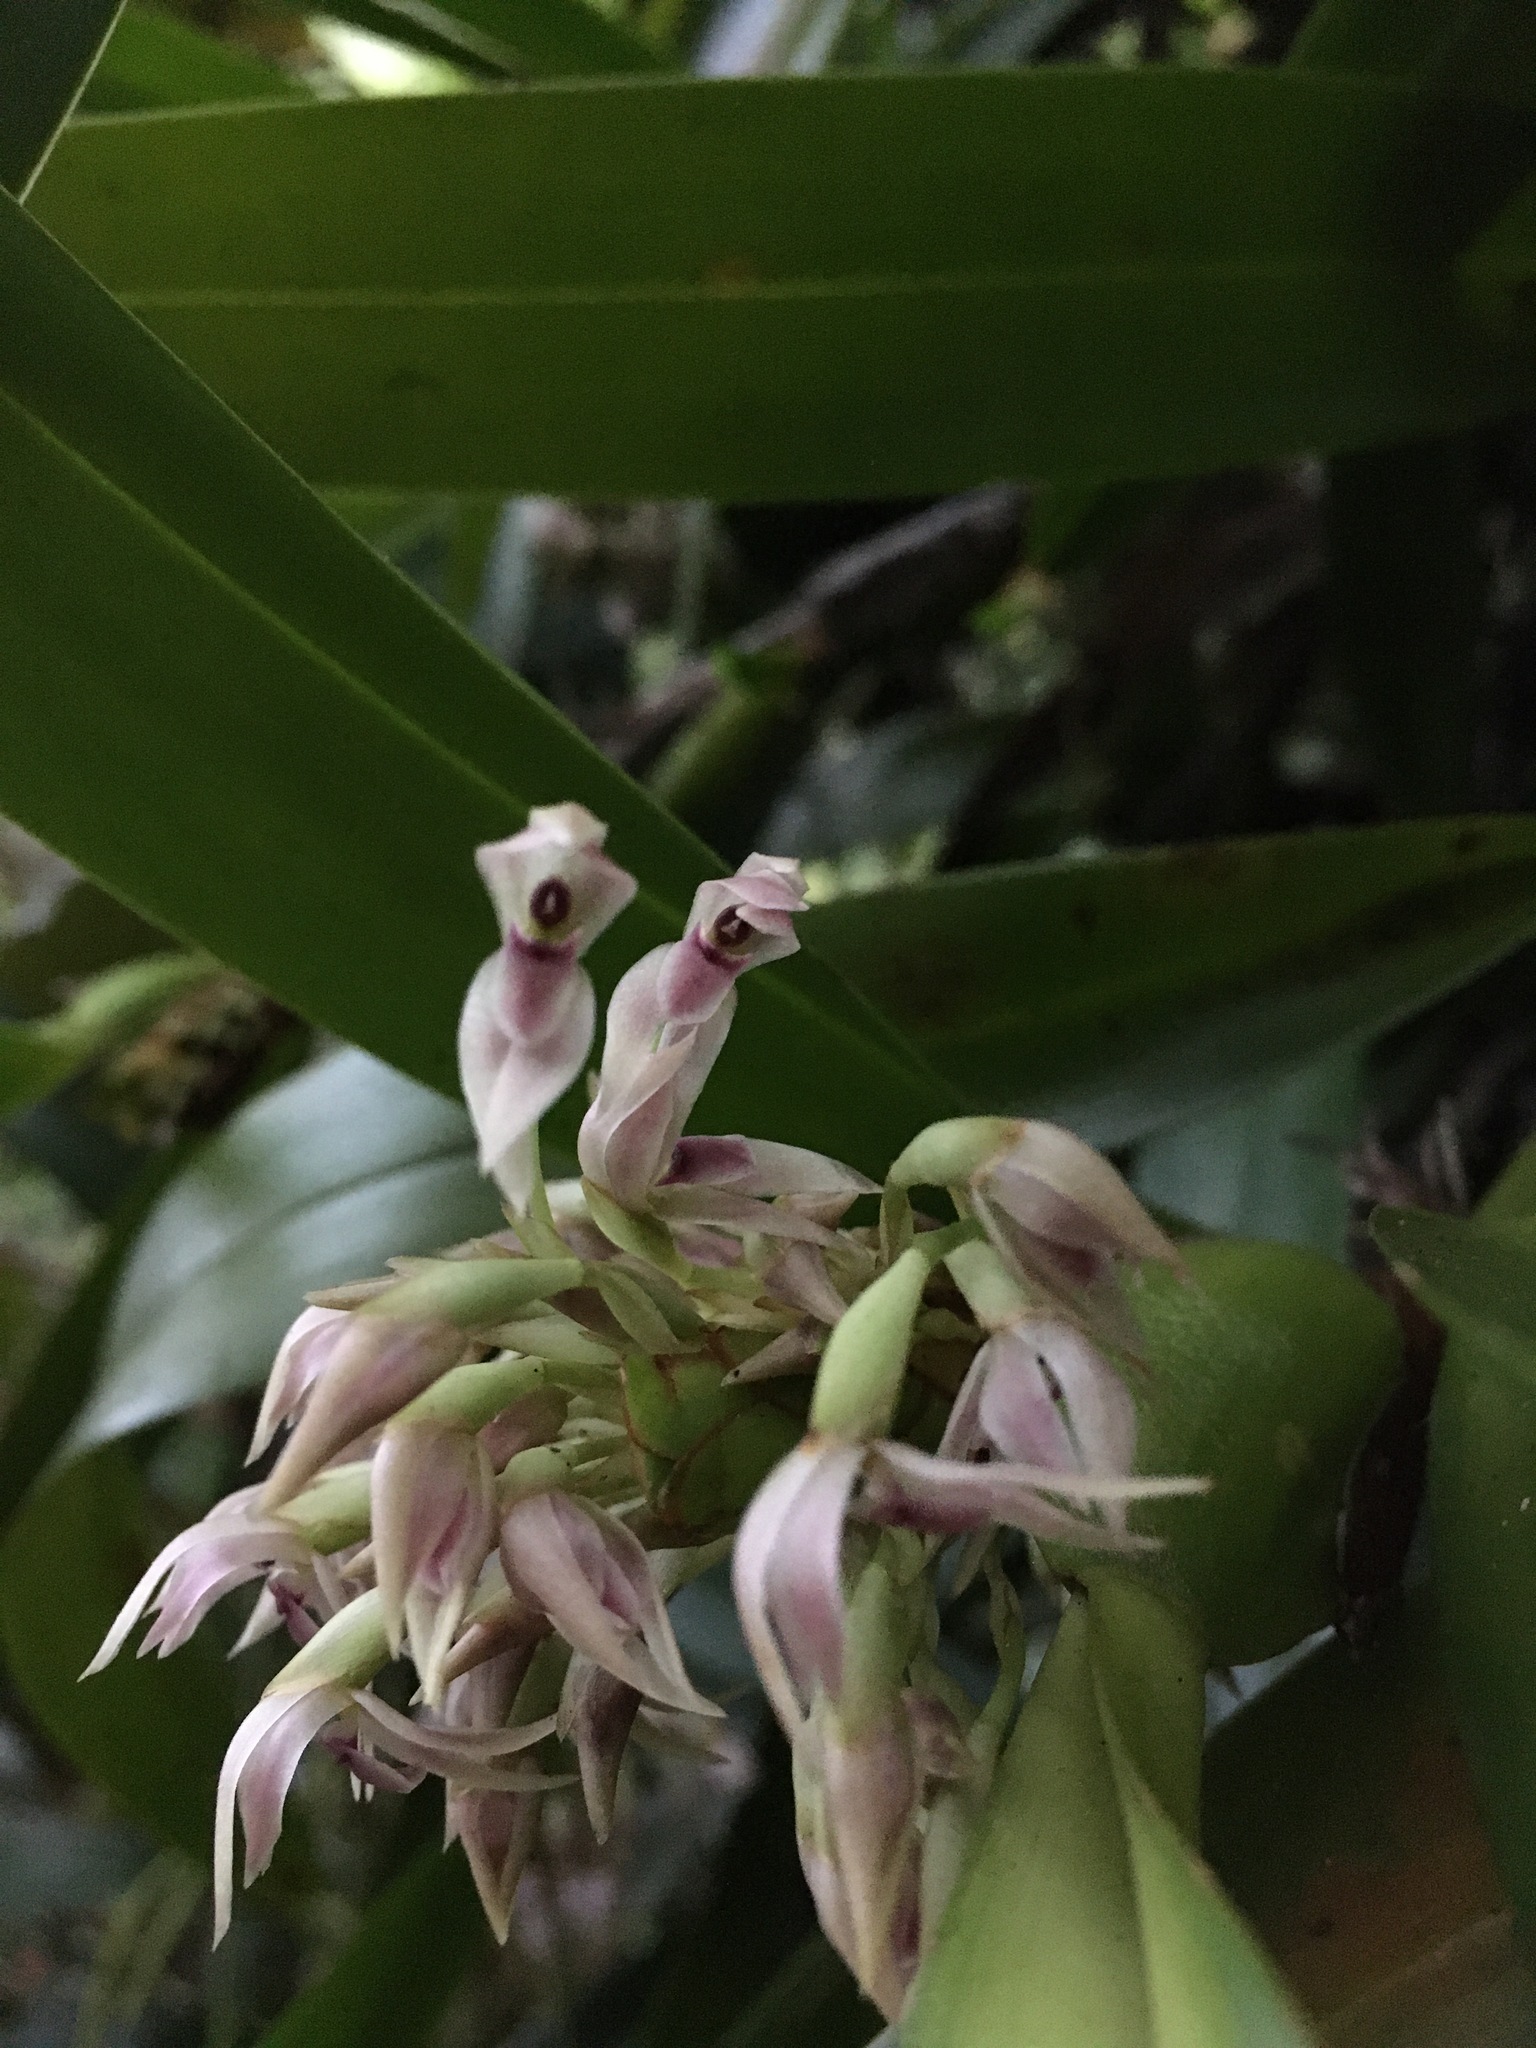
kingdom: Plantae
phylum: Tracheophyta
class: Liliopsida
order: Asparagales
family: Orchidaceae
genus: Maxillaria
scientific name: Maxillaria densa
